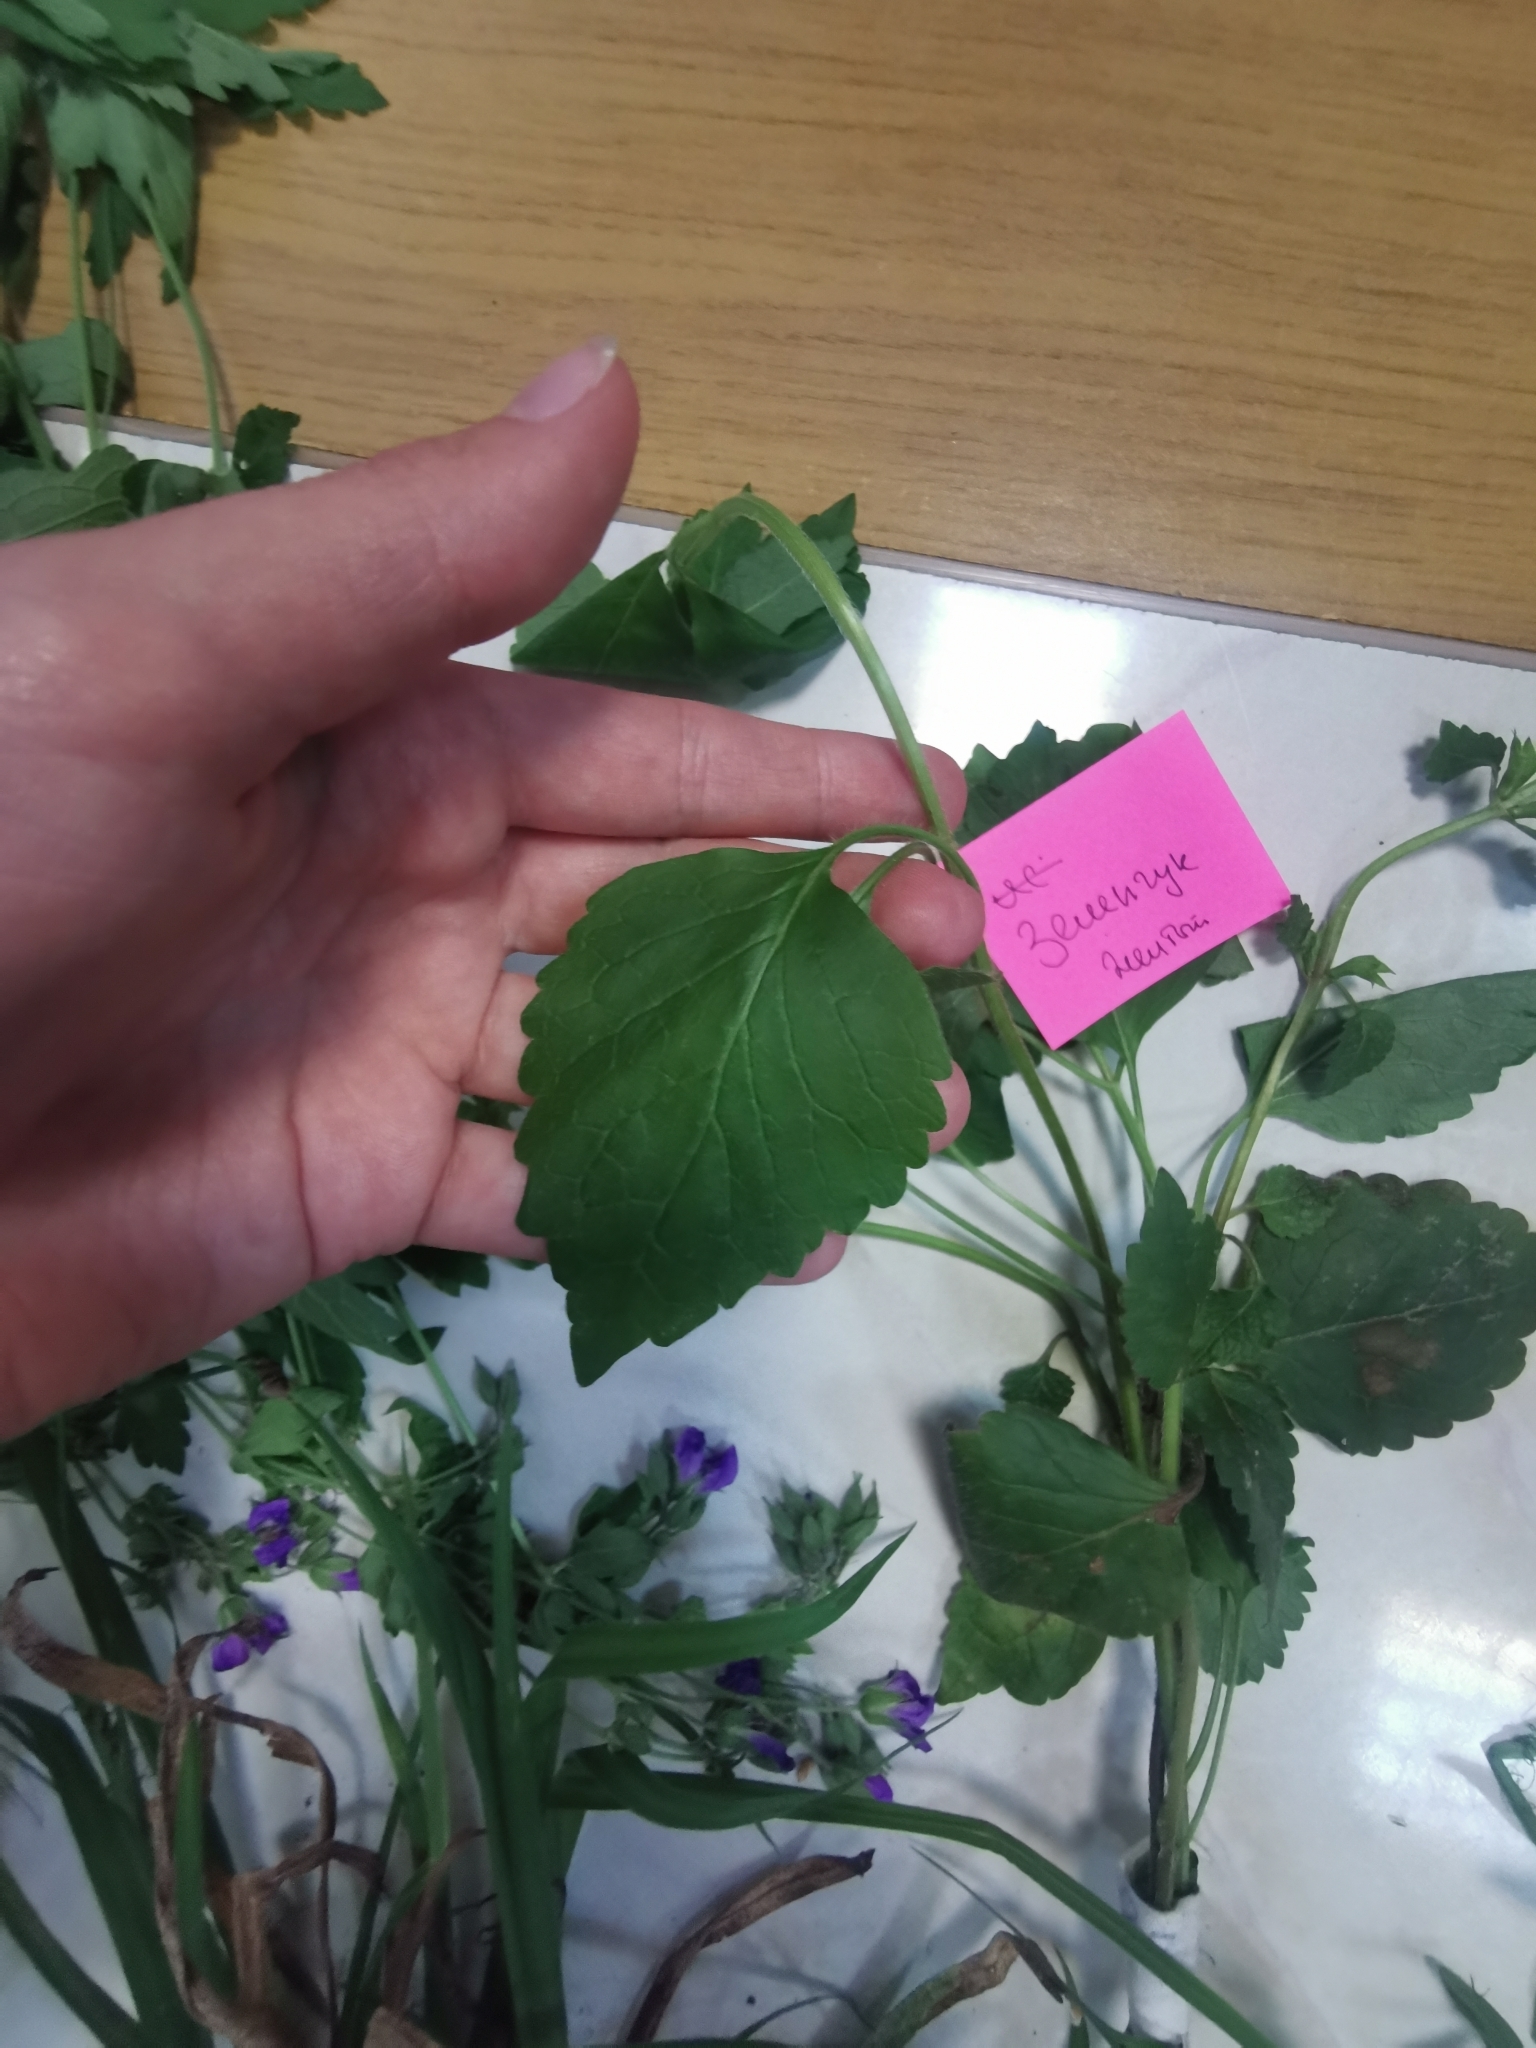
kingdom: Plantae
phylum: Tracheophyta
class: Magnoliopsida
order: Lamiales
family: Lamiaceae
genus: Lamium
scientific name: Lamium galeobdolon
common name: Yellow archangel
